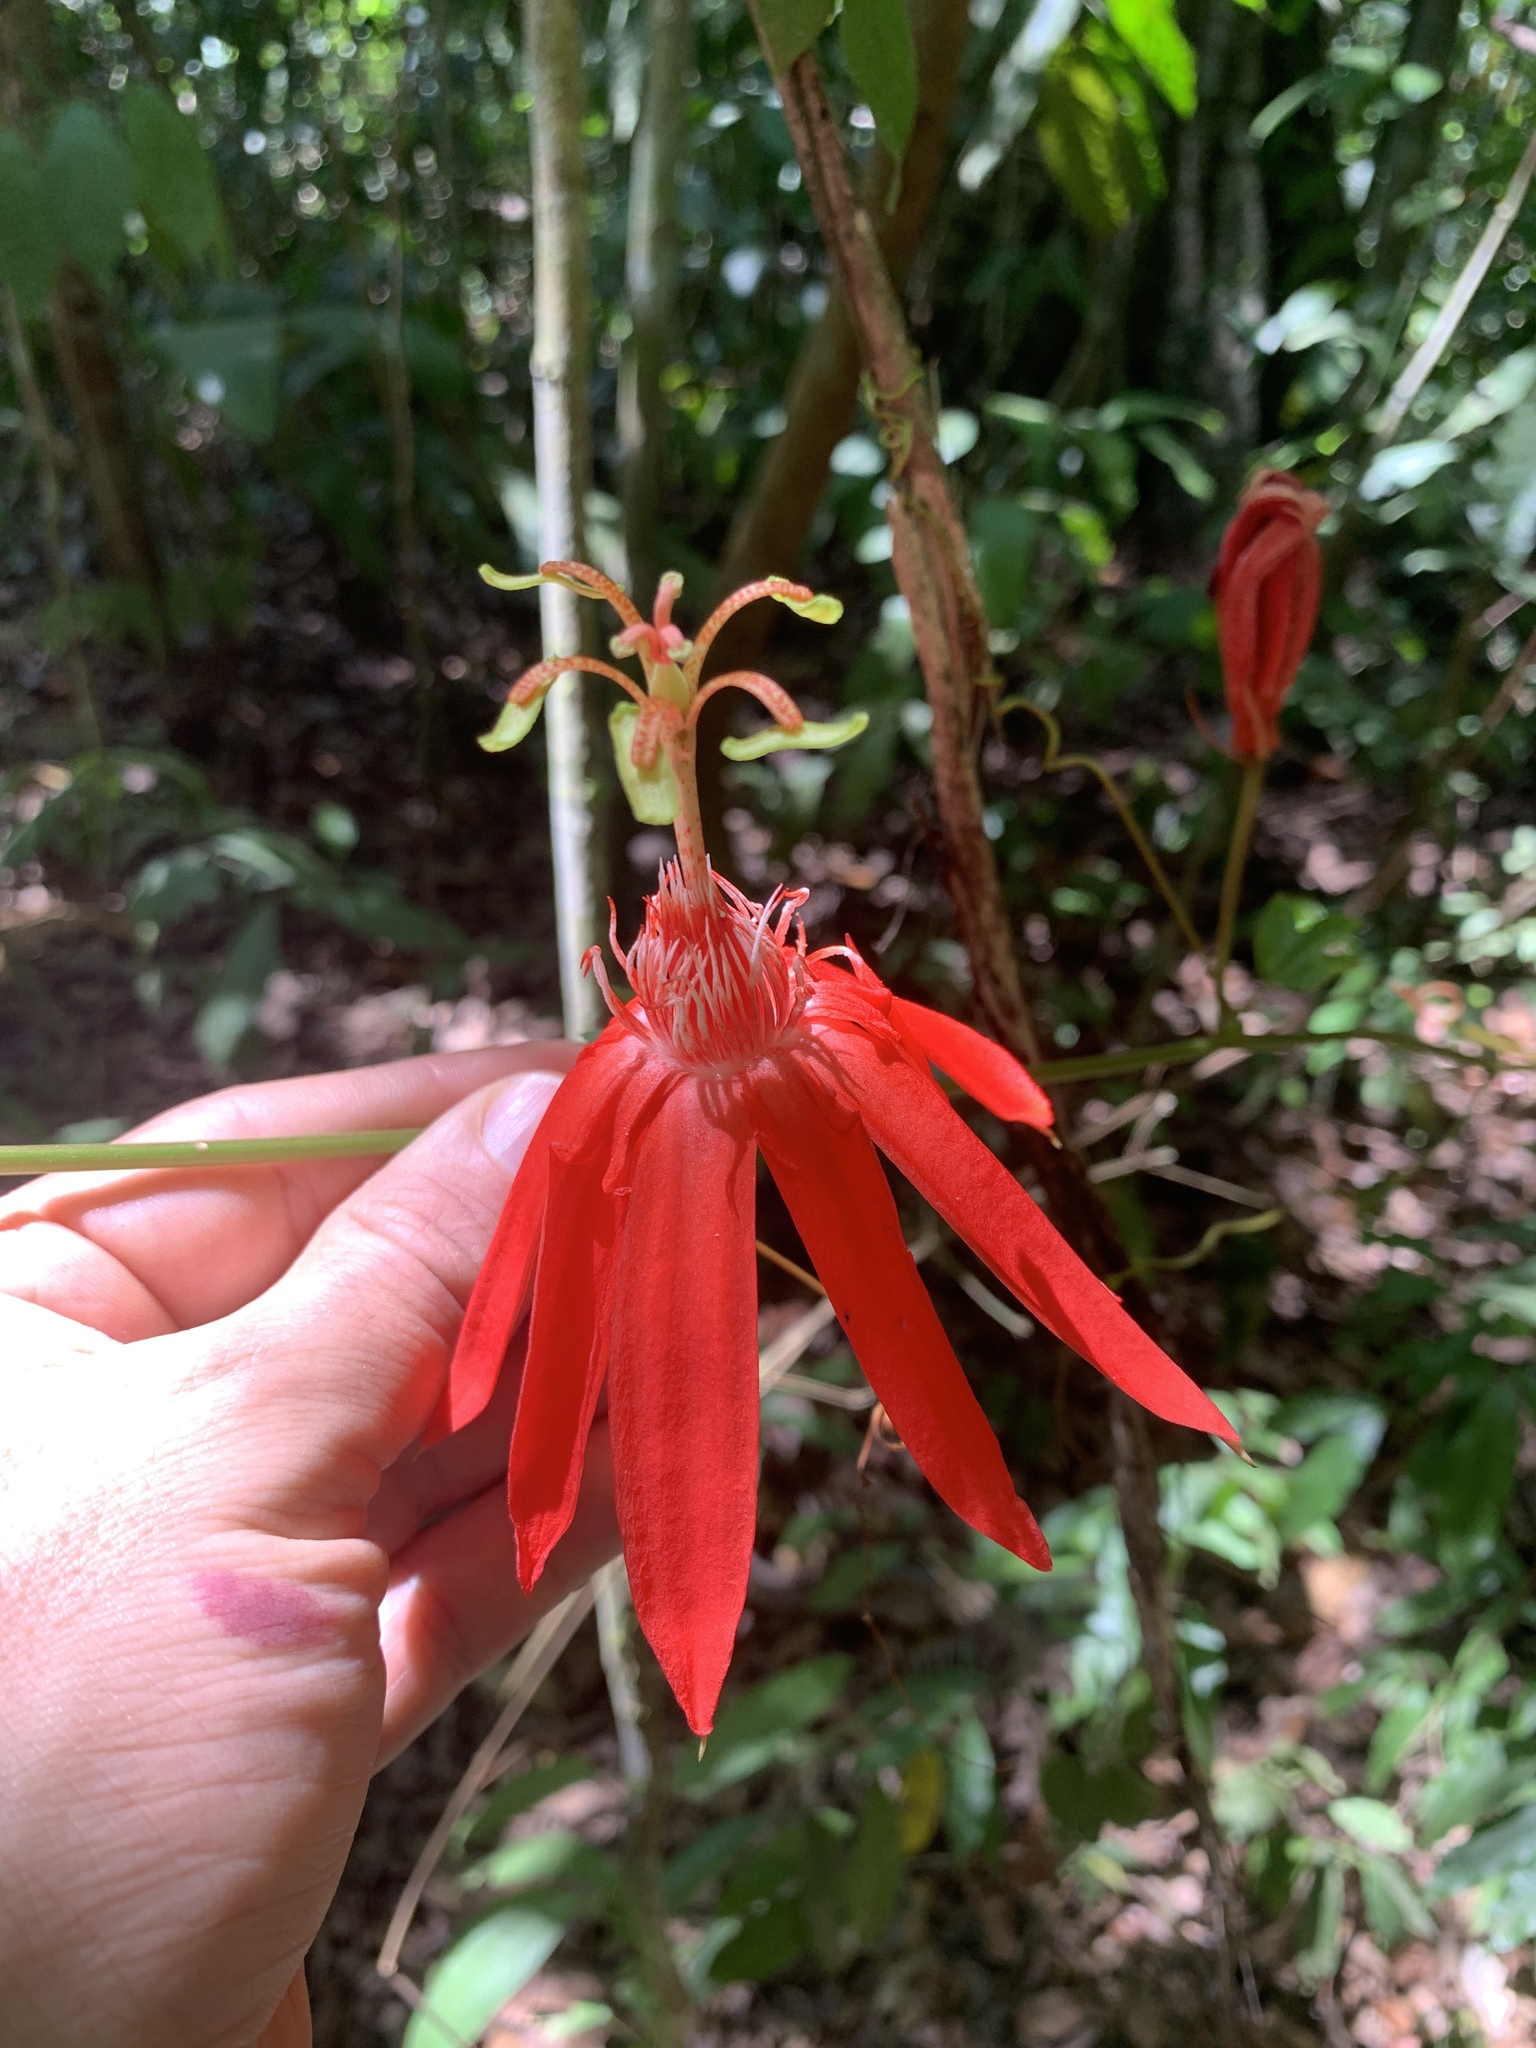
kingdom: Plantae
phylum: Tracheophyta
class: Magnoliopsida
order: Malpighiales
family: Passifloraceae
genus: Passiflora
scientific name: Passiflora vitifolia
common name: Perfumed passionflower
